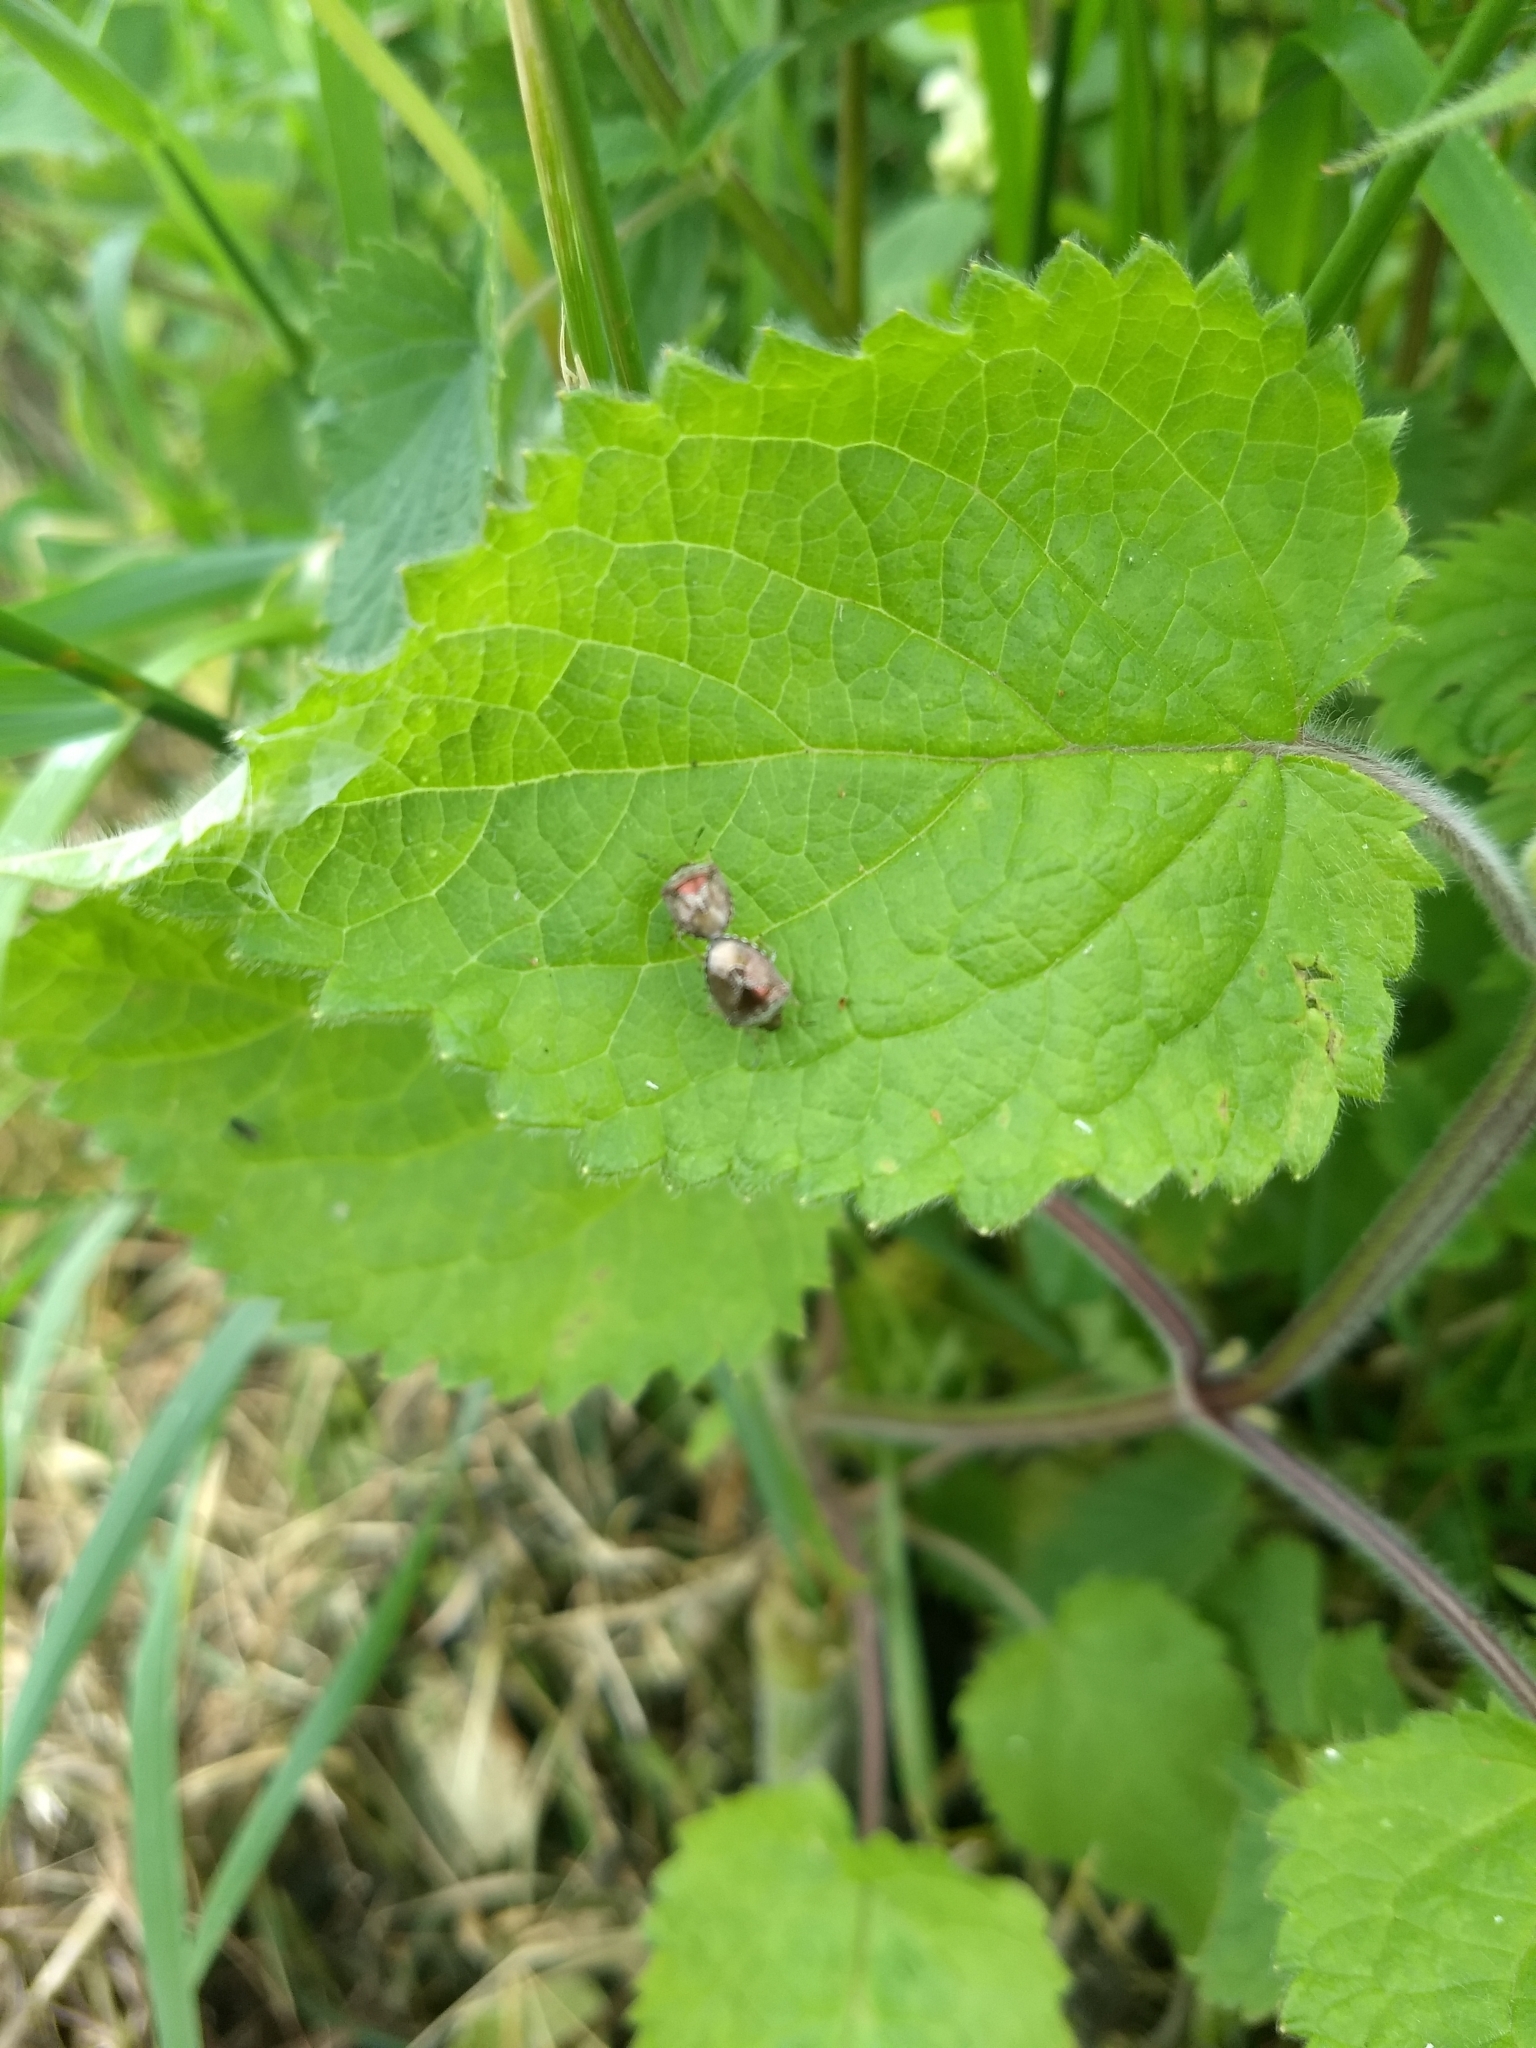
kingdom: Animalia
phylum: Arthropoda
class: Insecta
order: Hemiptera
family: Pentatomidae
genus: Eysarcoris
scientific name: Eysarcoris venustissimus
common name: Woundwort shieldbug
